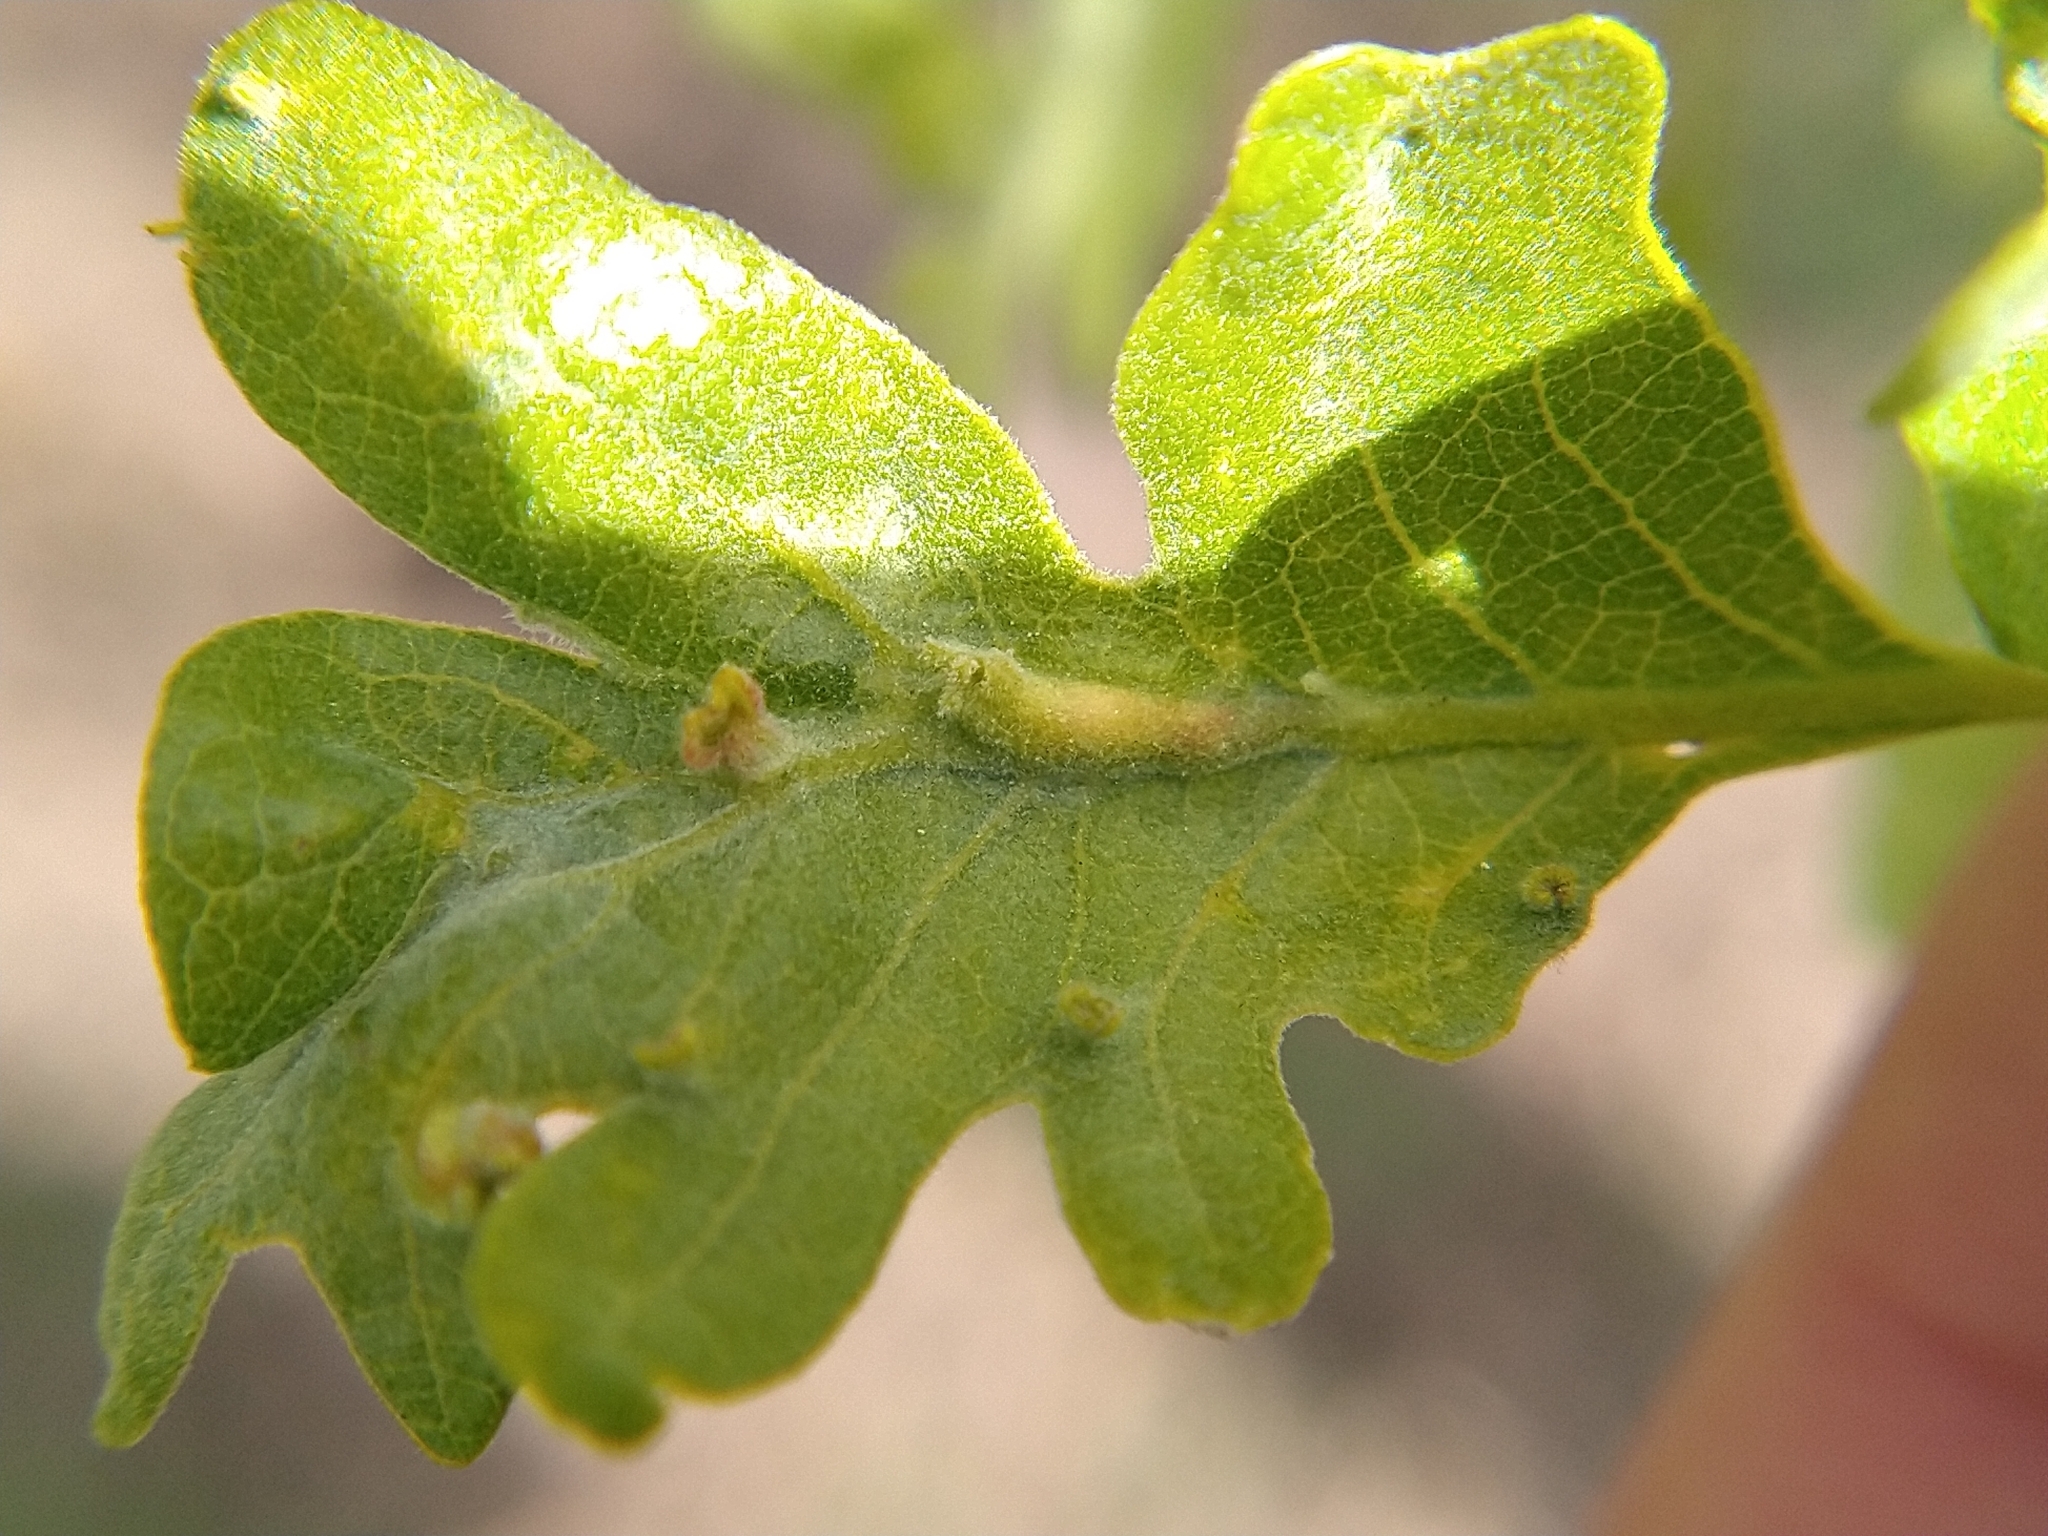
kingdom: Animalia
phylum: Arthropoda
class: Insecta
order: Hymenoptera
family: Cynipidae
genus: Andricus
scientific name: Andricus
